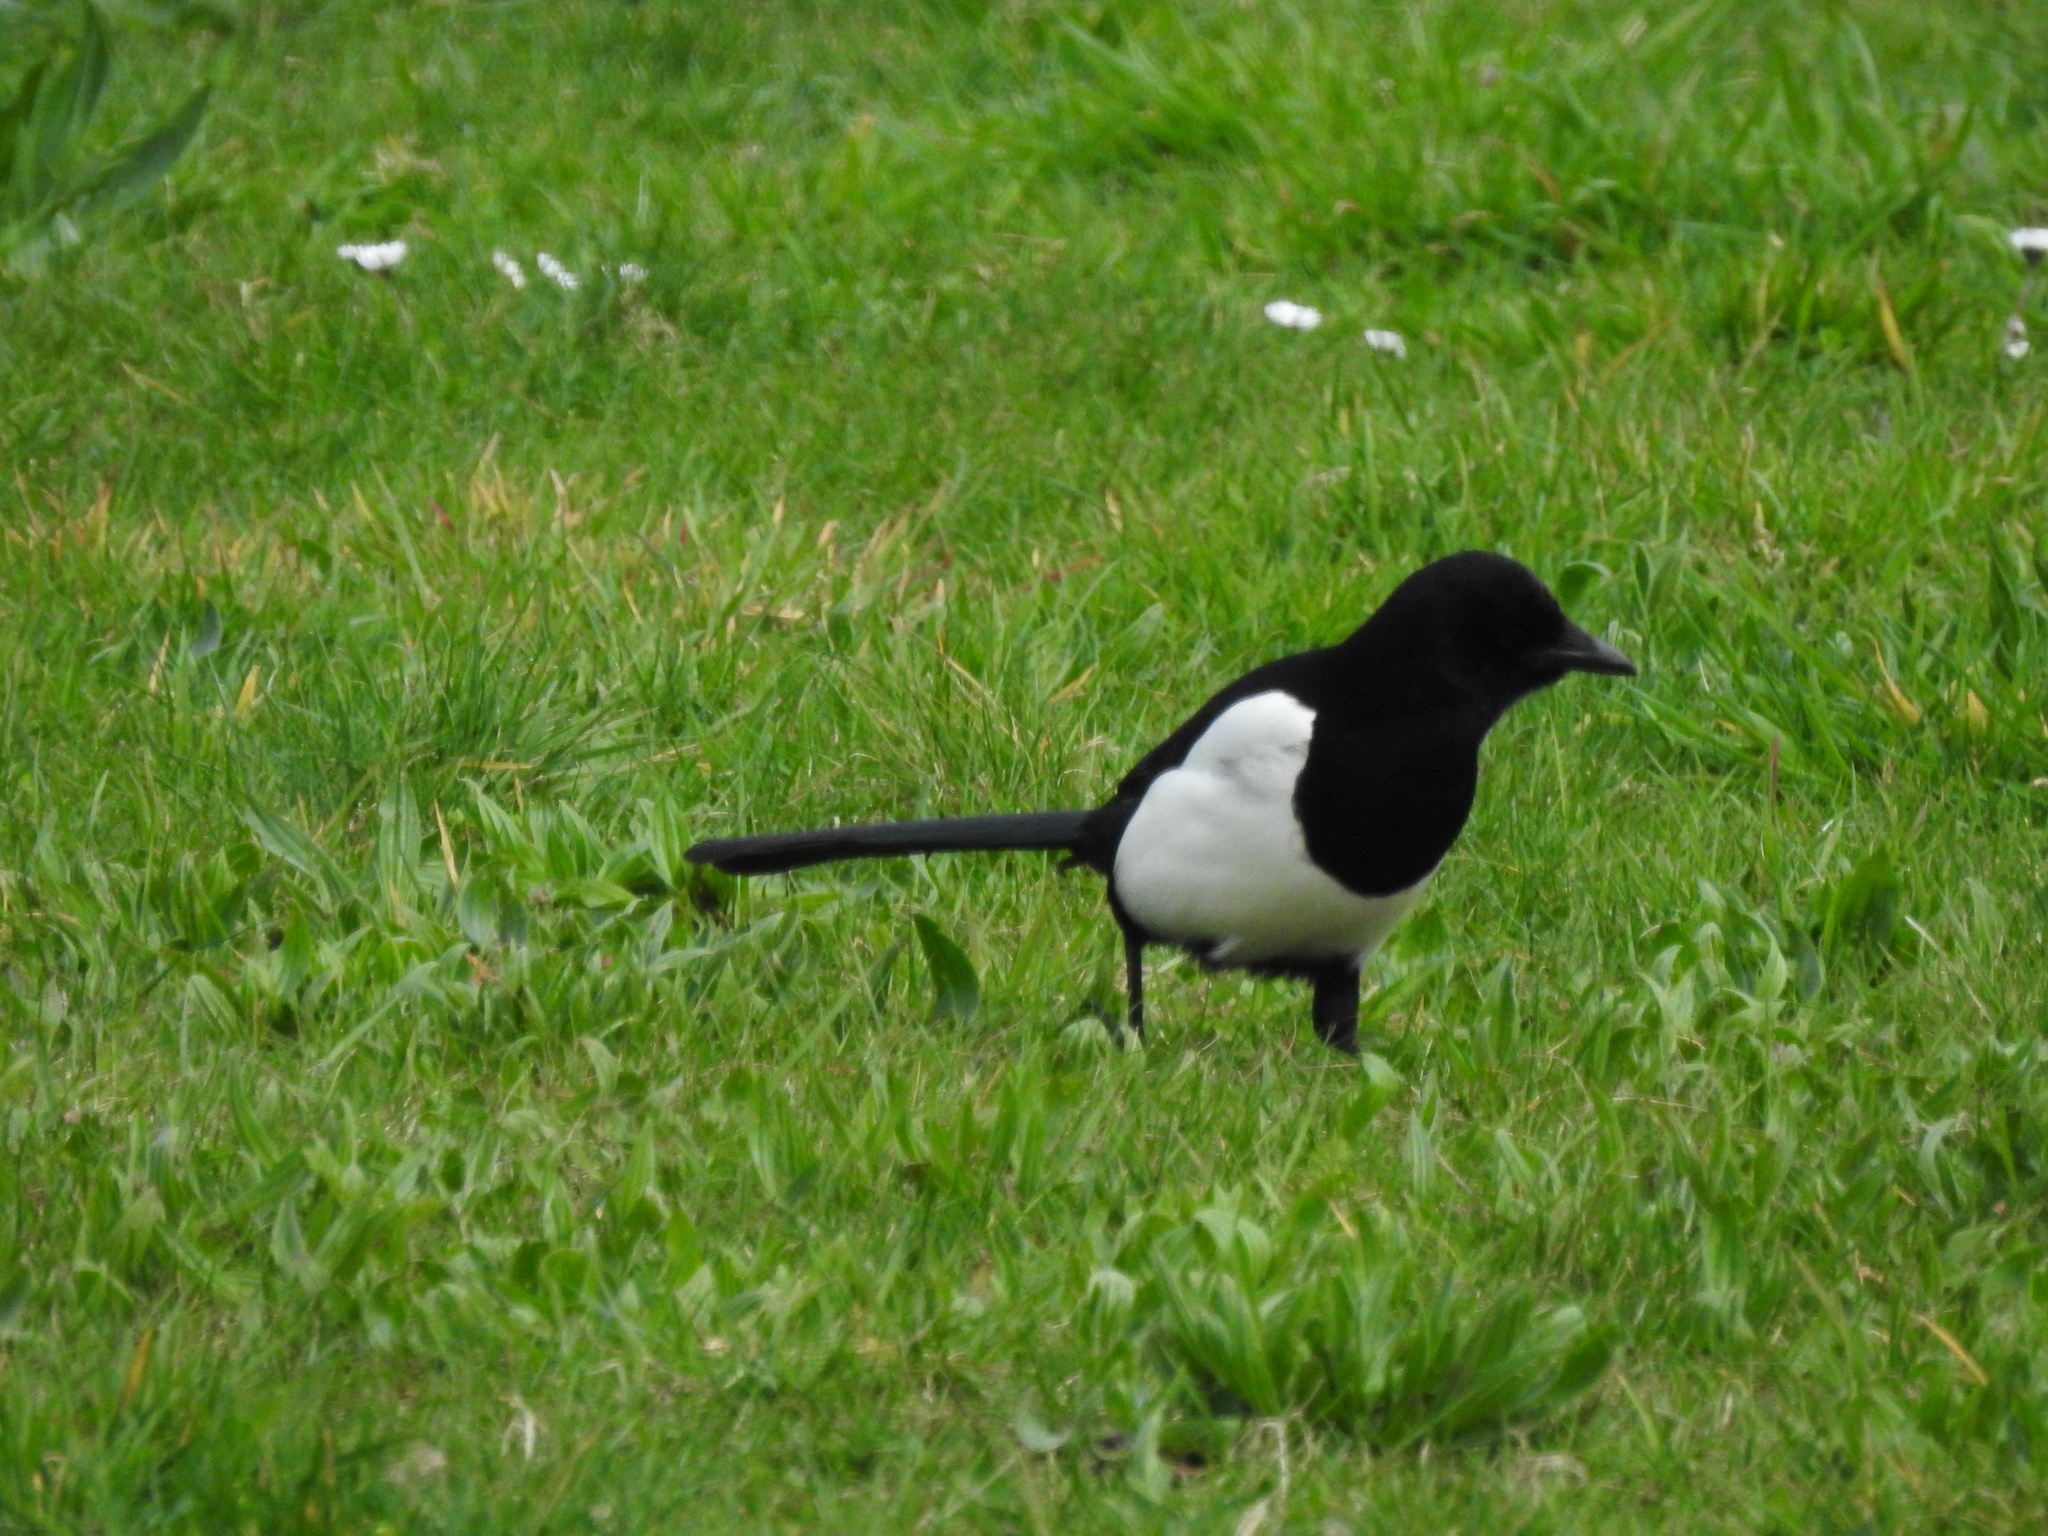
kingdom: Animalia
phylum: Chordata
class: Aves
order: Passeriformes
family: Corvidae
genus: Pica
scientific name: Pica pica
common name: Eurasian magpie
